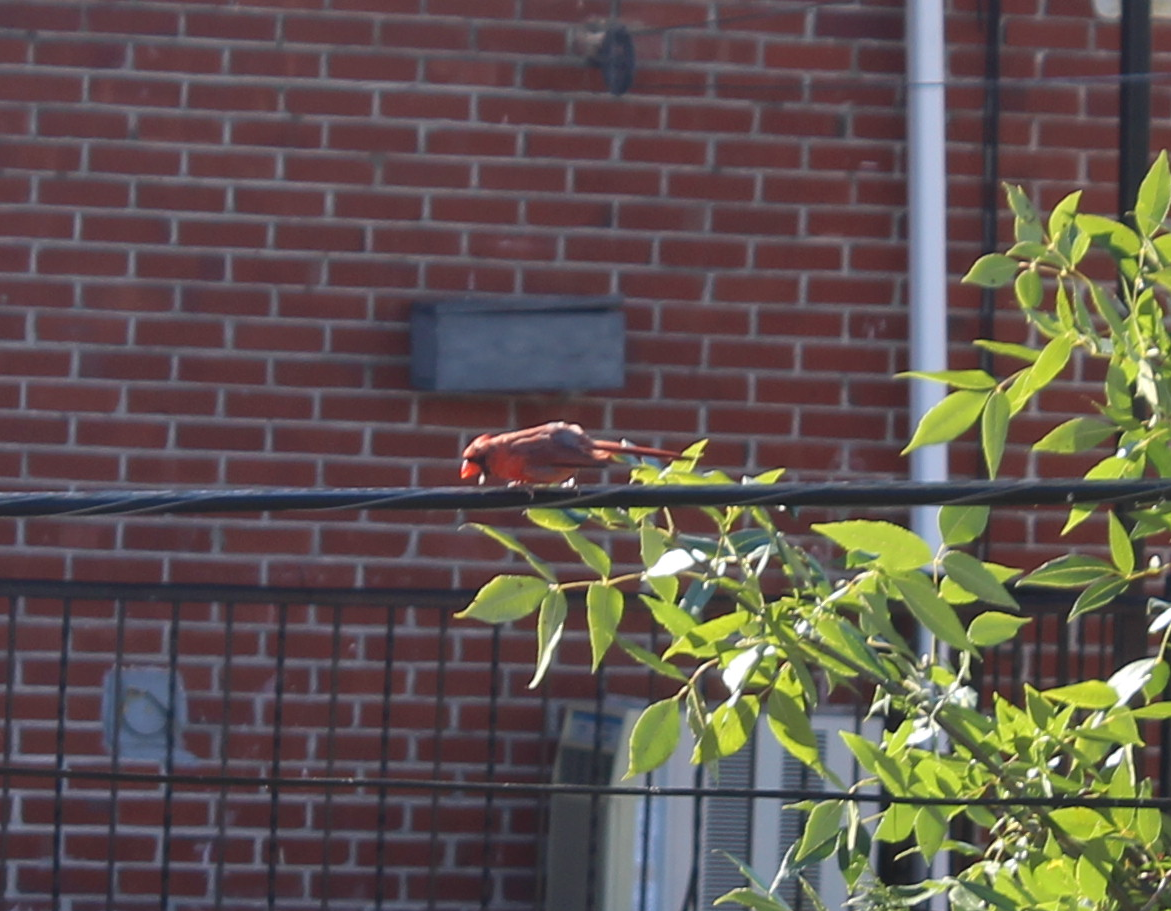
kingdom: Animalia
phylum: Chordata
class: Aves
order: Passeriformes
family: Cardinalidae
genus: Cardinalis
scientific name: Cardinalis cardinalis
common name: Northern cardinal
